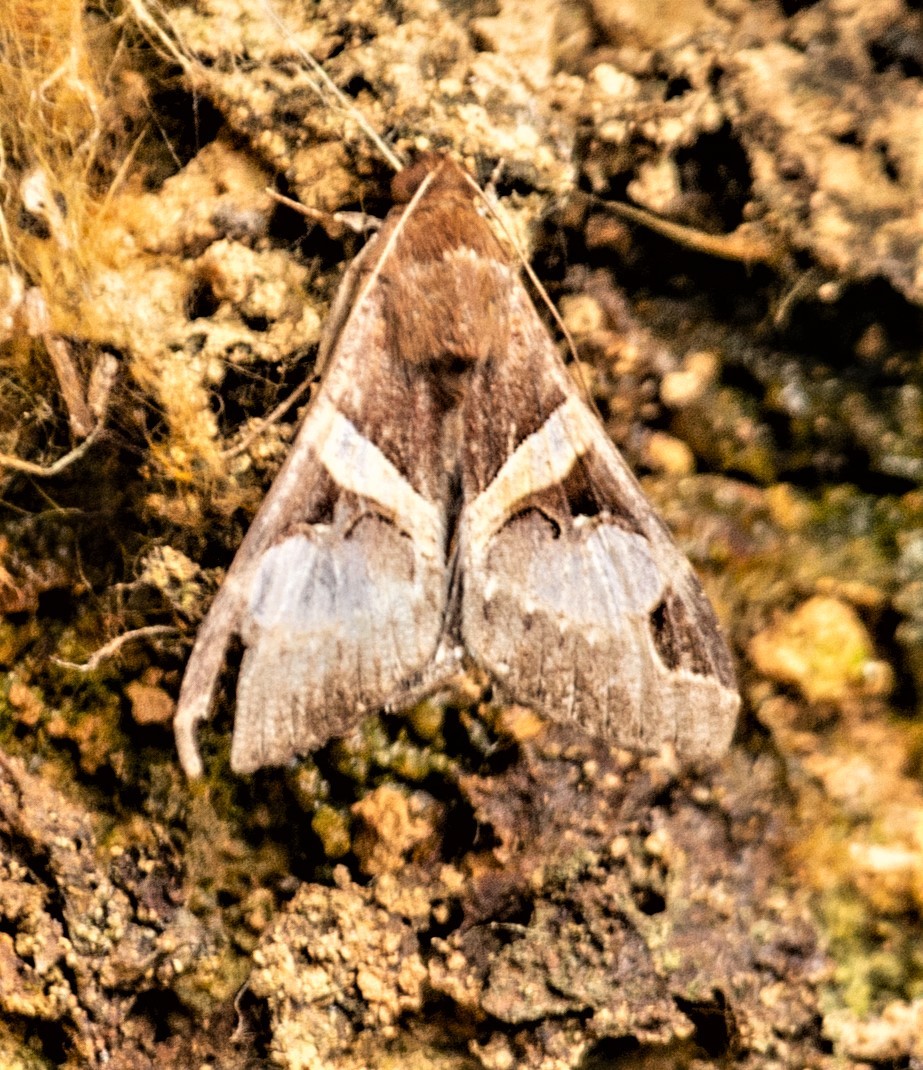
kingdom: Animalia
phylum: Arthropoda
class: Insecta
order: Lepidoptera
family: Erebidae
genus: Melipotis
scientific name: Melipotis fasciolaris
